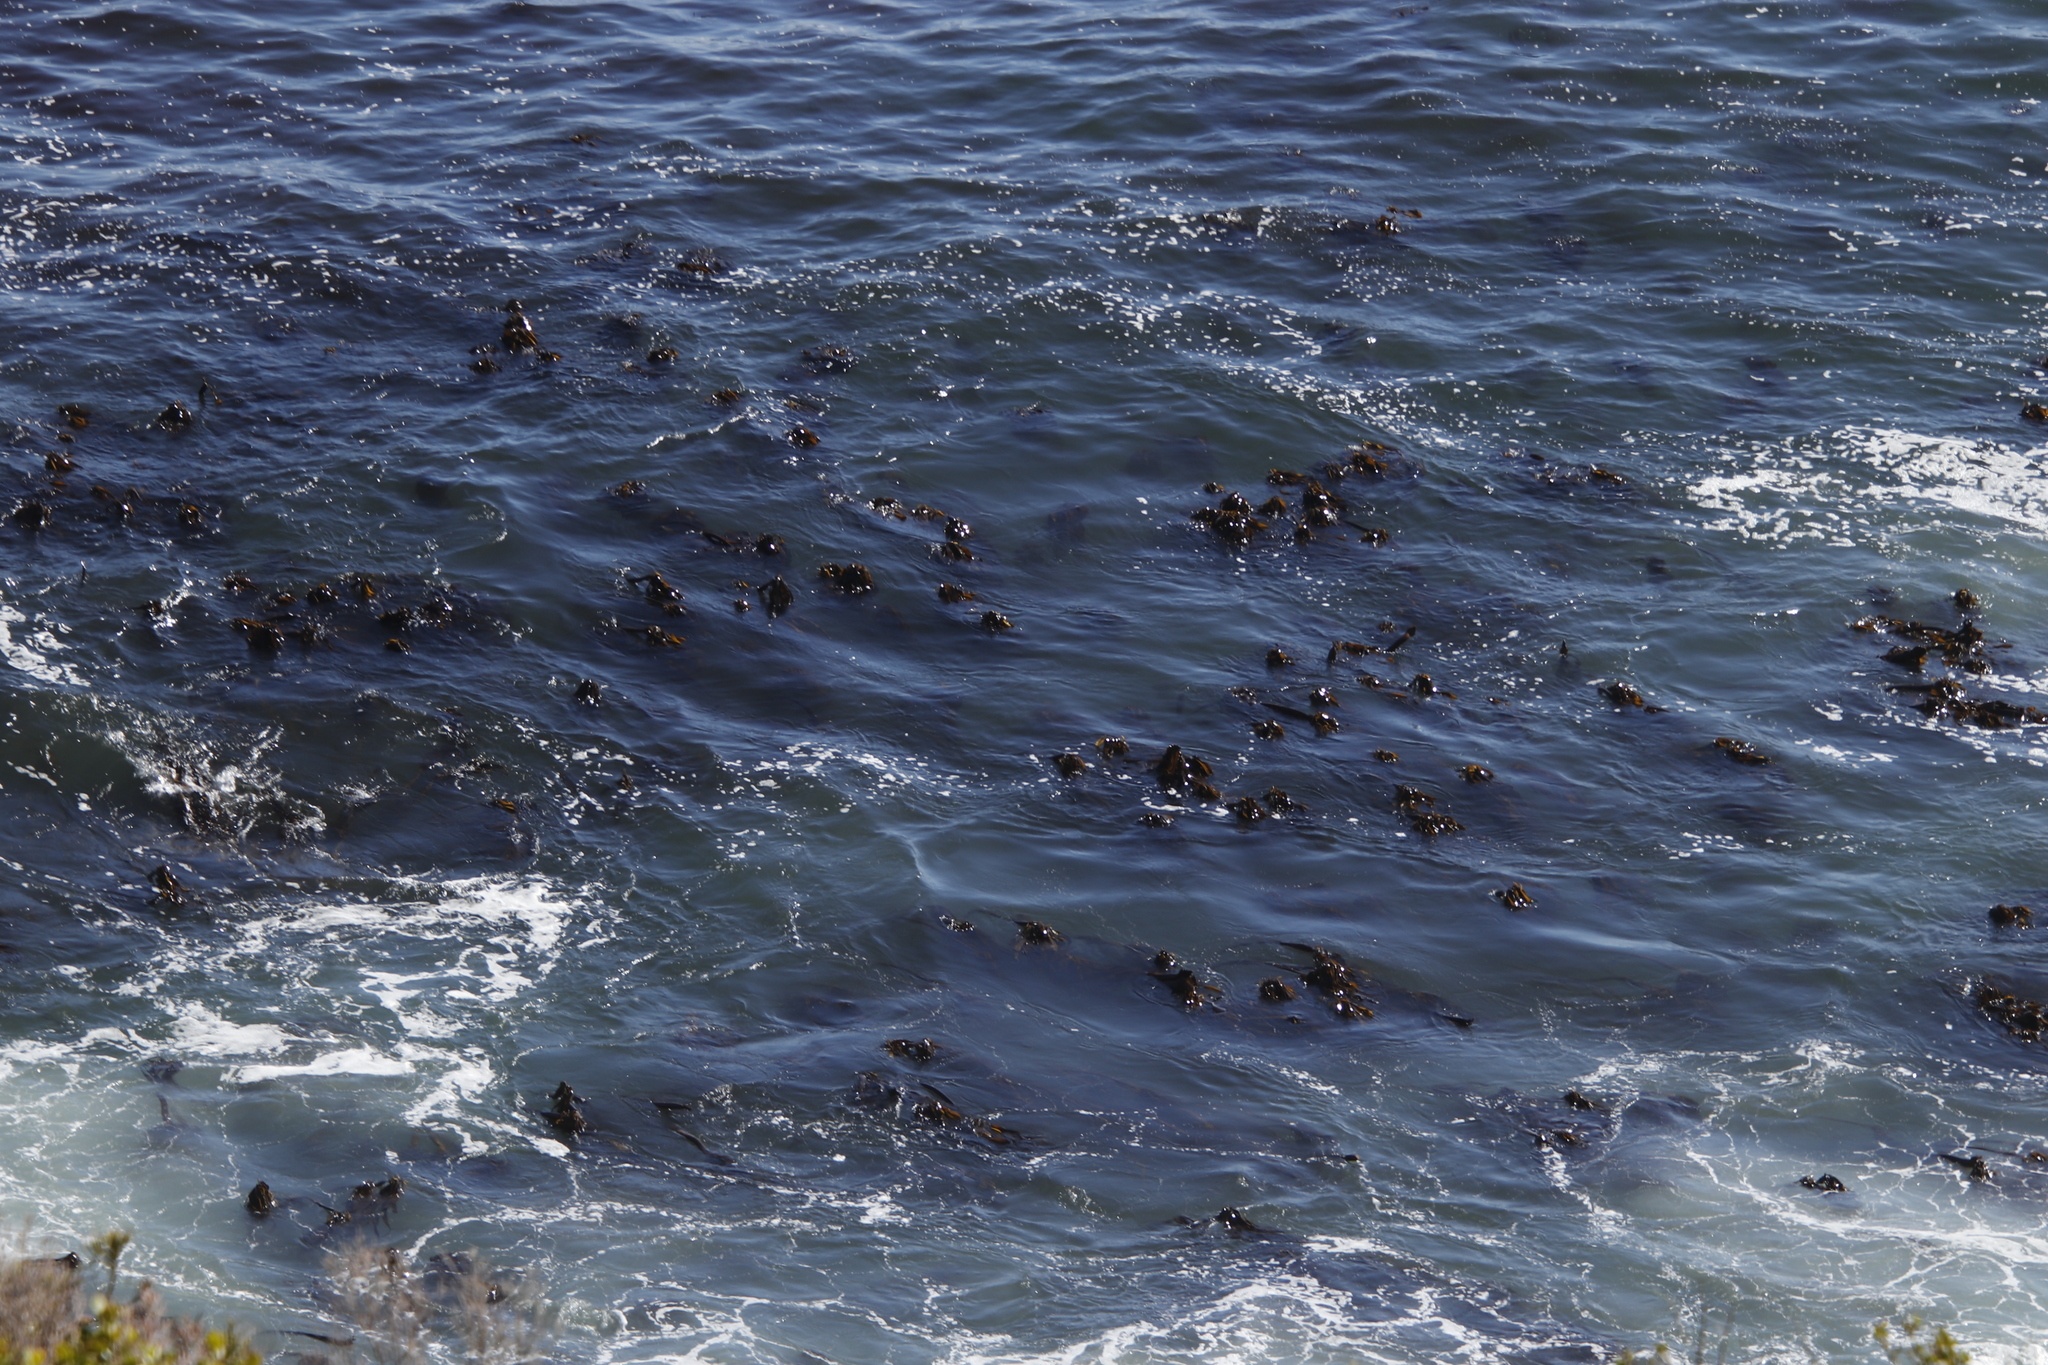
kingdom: Chromista
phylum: Ochrophyta
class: Phaeophyceae
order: Laminariales
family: Lessoniaceae
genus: Ecklonia
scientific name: Ecklonia
